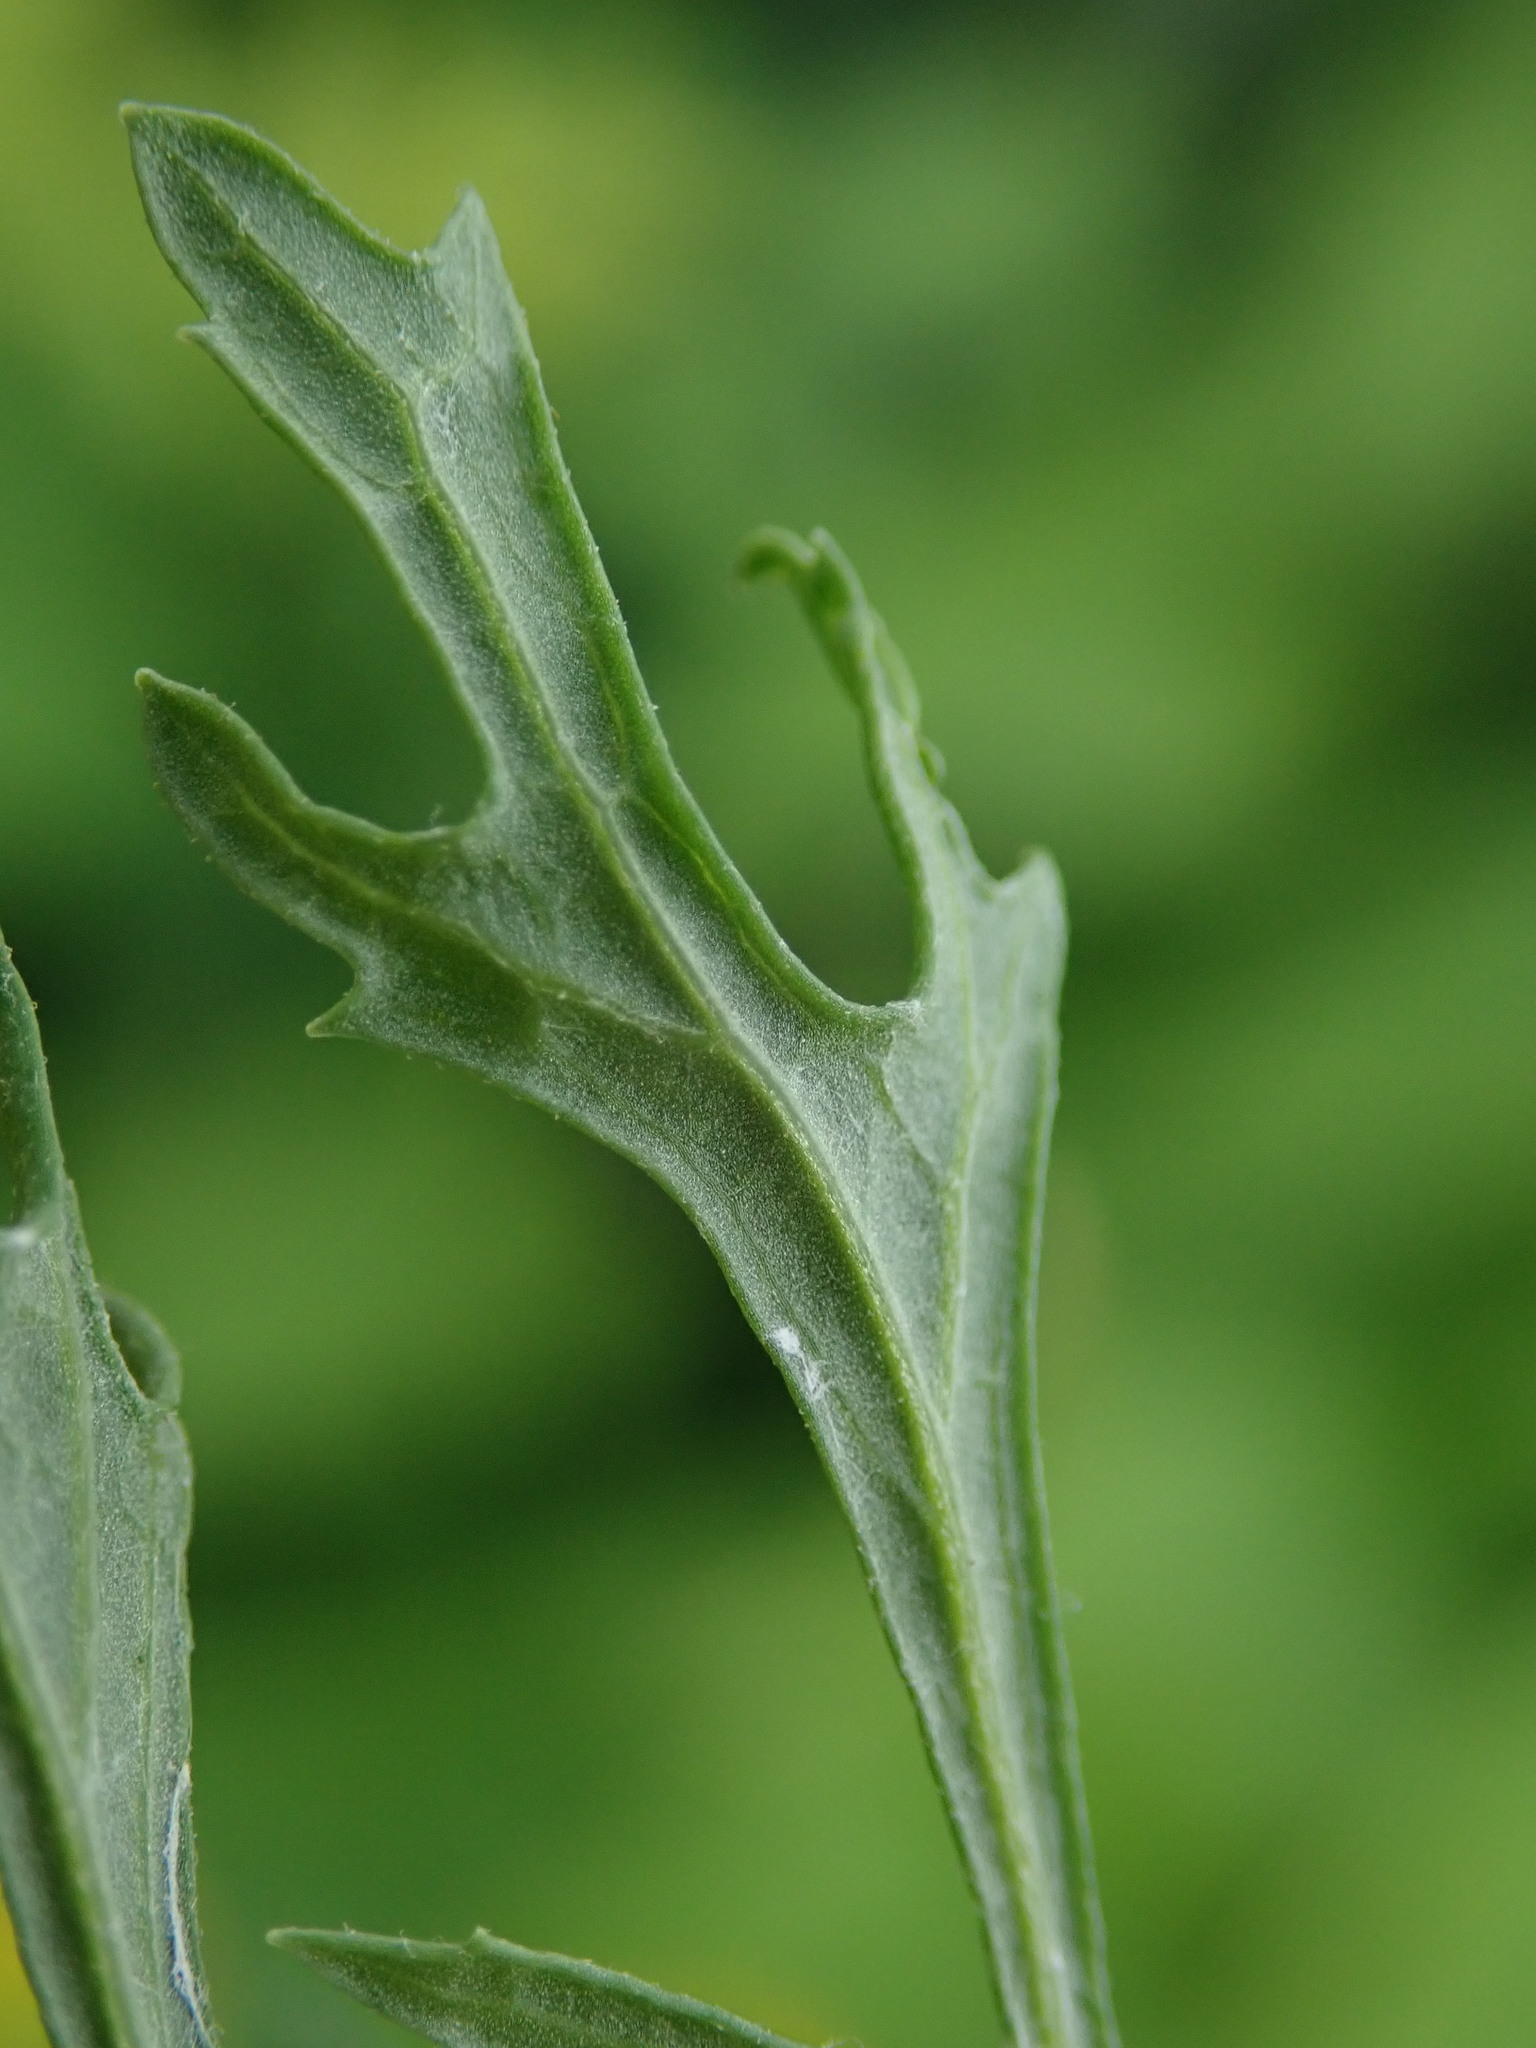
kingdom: Plantae
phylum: Tracheophyta
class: Magnoliopsida
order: Asterales
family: Asteraceae
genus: Jacobaea
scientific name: Jacobaea vulgaris
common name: Stinking willie
